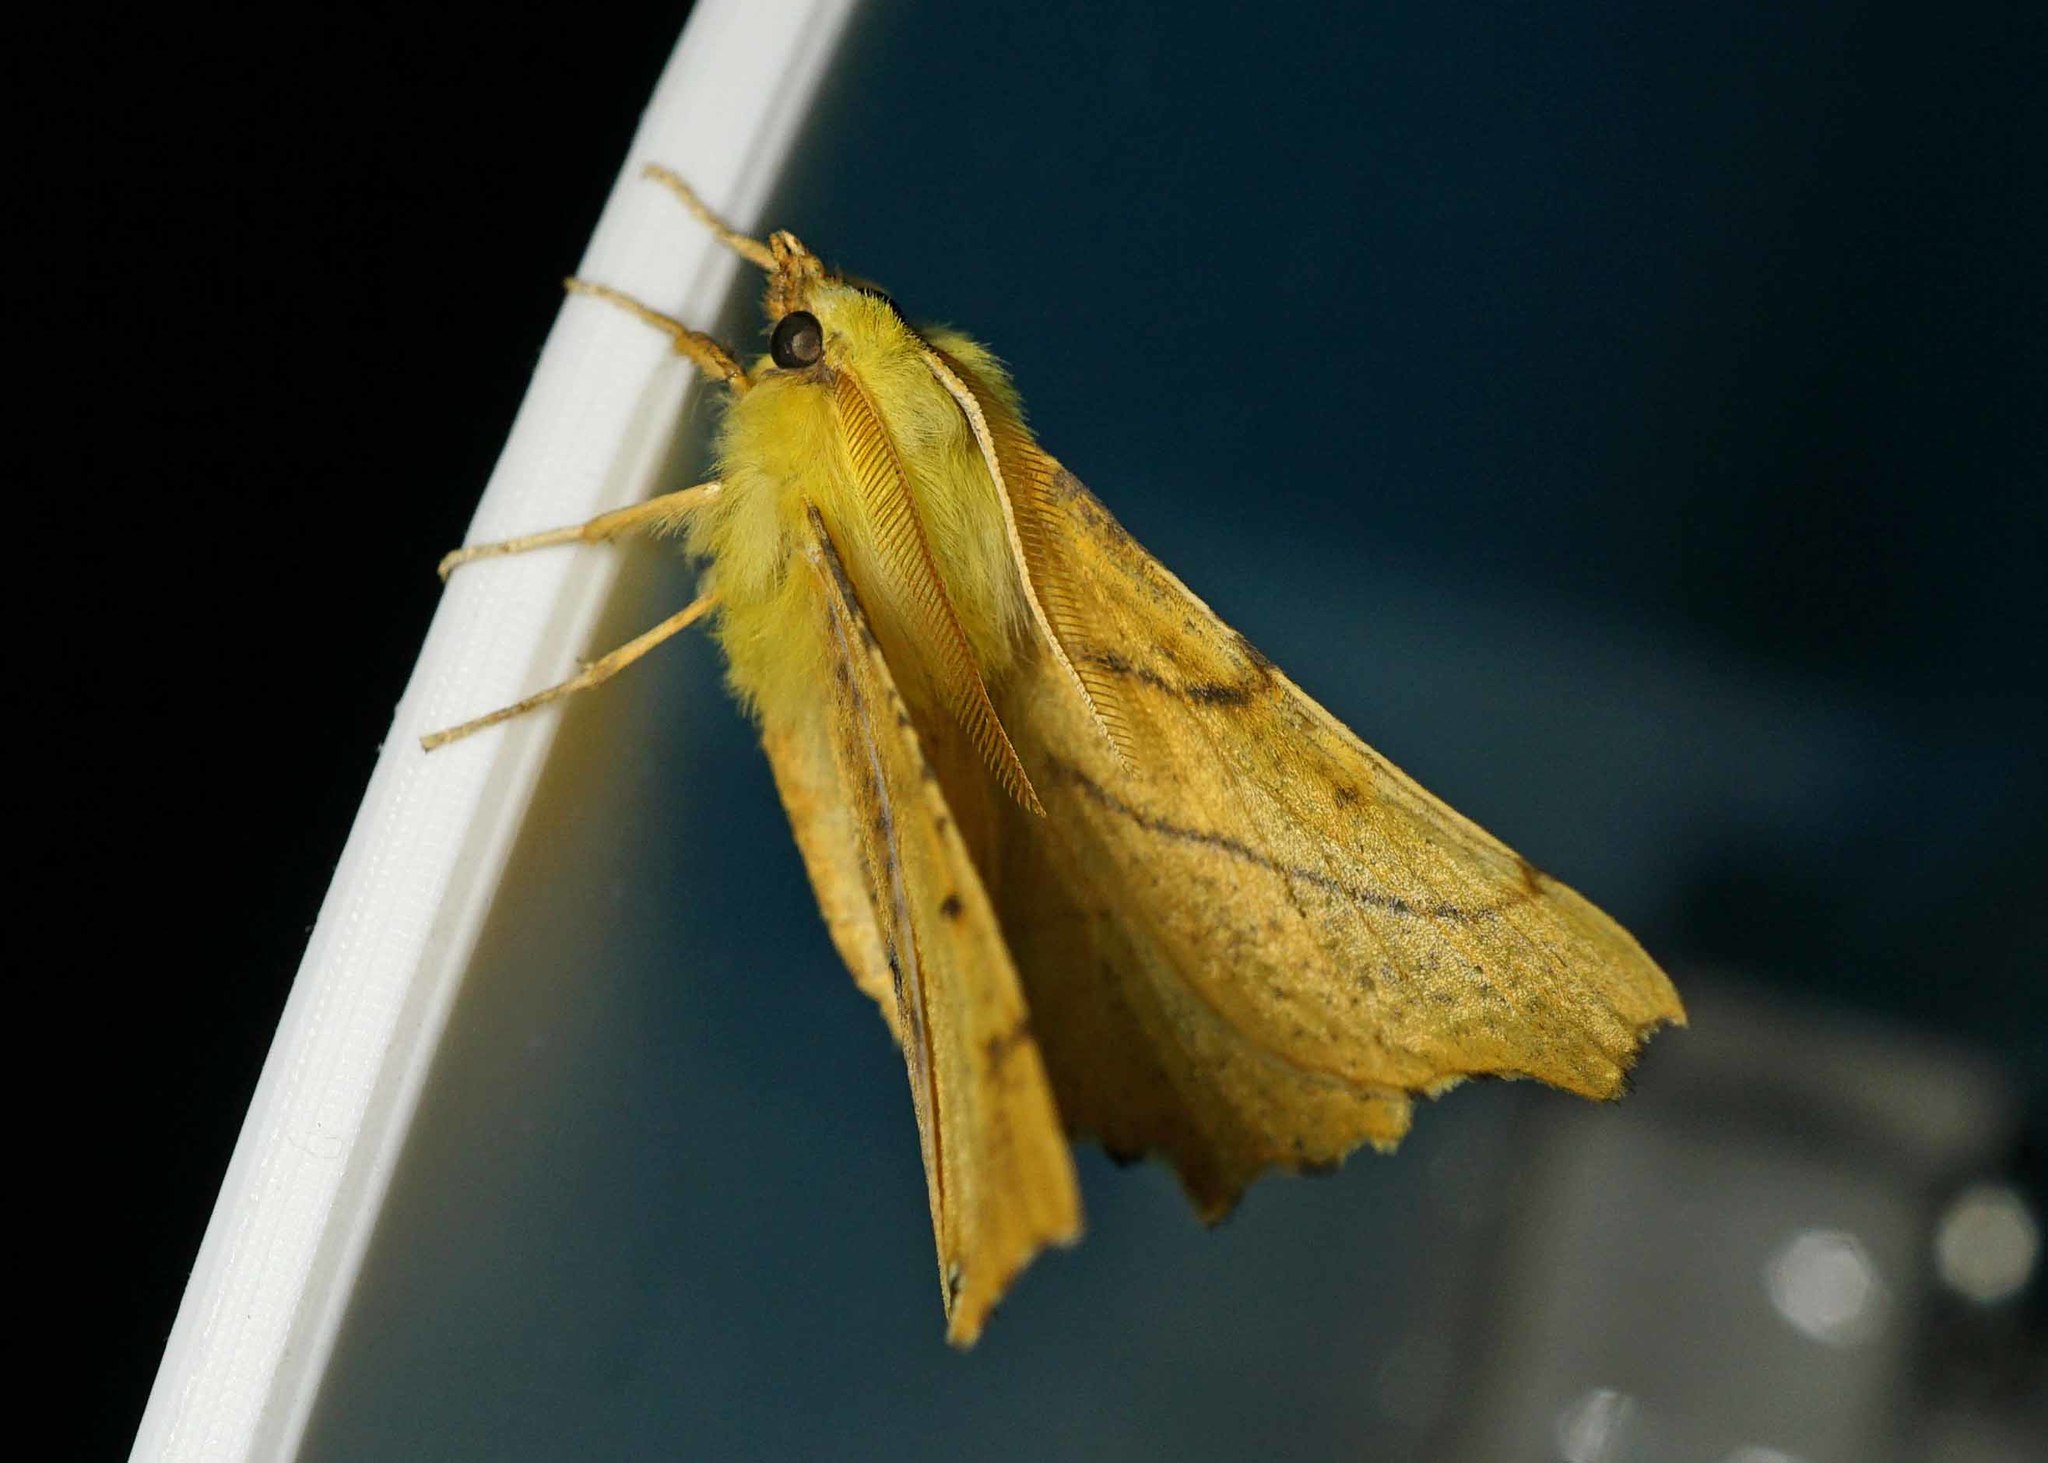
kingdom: Animalia
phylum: Arthropoda
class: Insecta
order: Lepidoptera
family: Geometridae
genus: Ennomos
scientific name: Ennomos alniaria
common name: Canary-shouldered thorn
